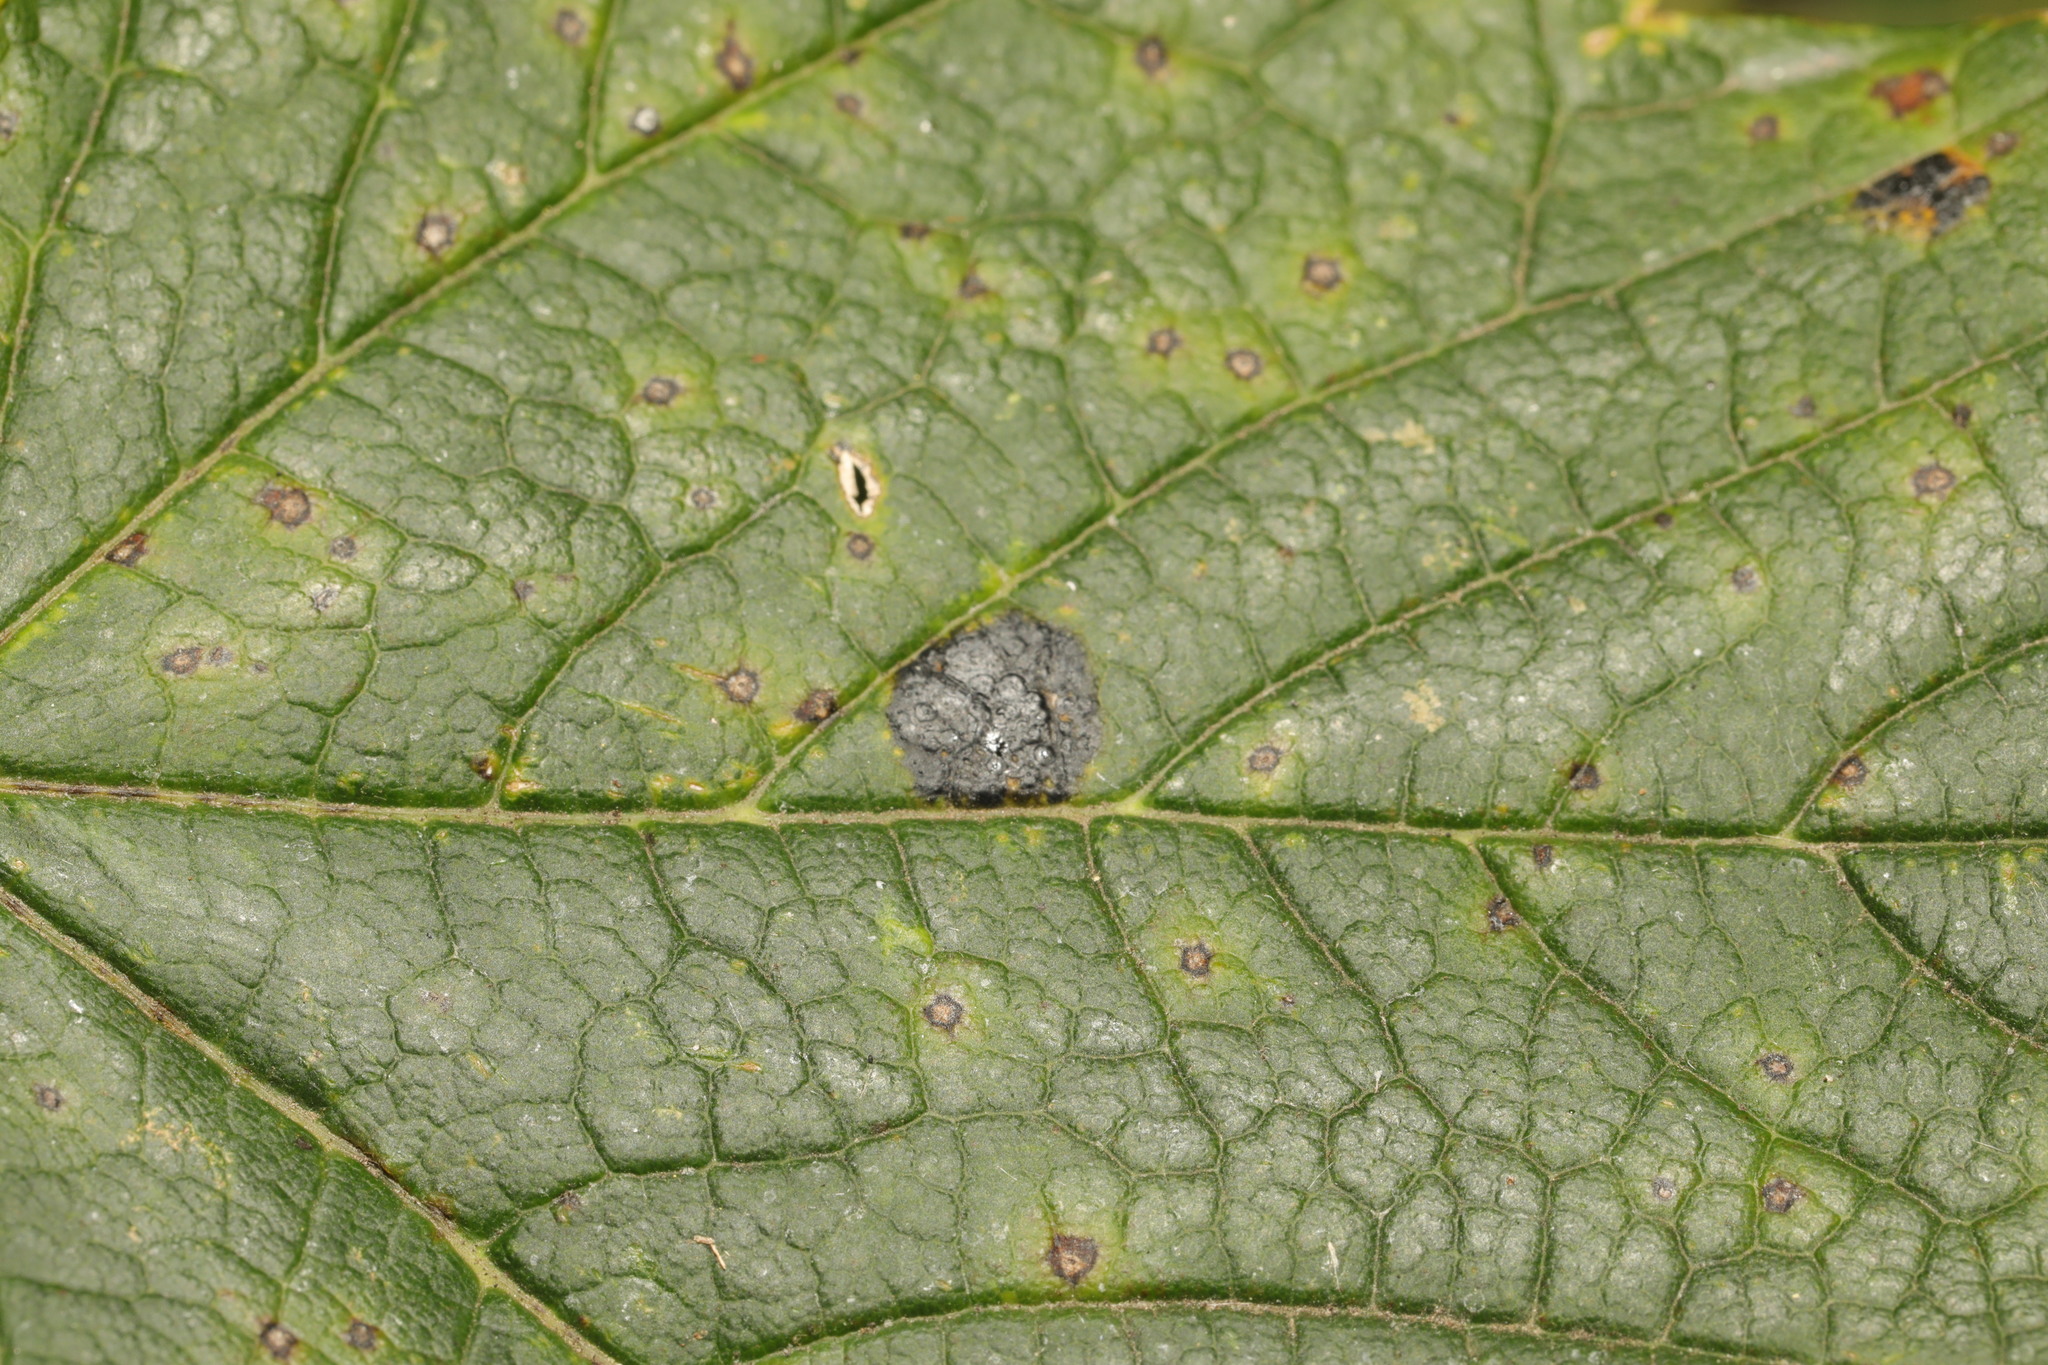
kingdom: Fungi
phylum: Ascomycota
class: Leotiomycetes
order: Rhytismatales
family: Rhytismataceae
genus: Rhytisma
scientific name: Rhytisma acerinum
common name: European tar spot
